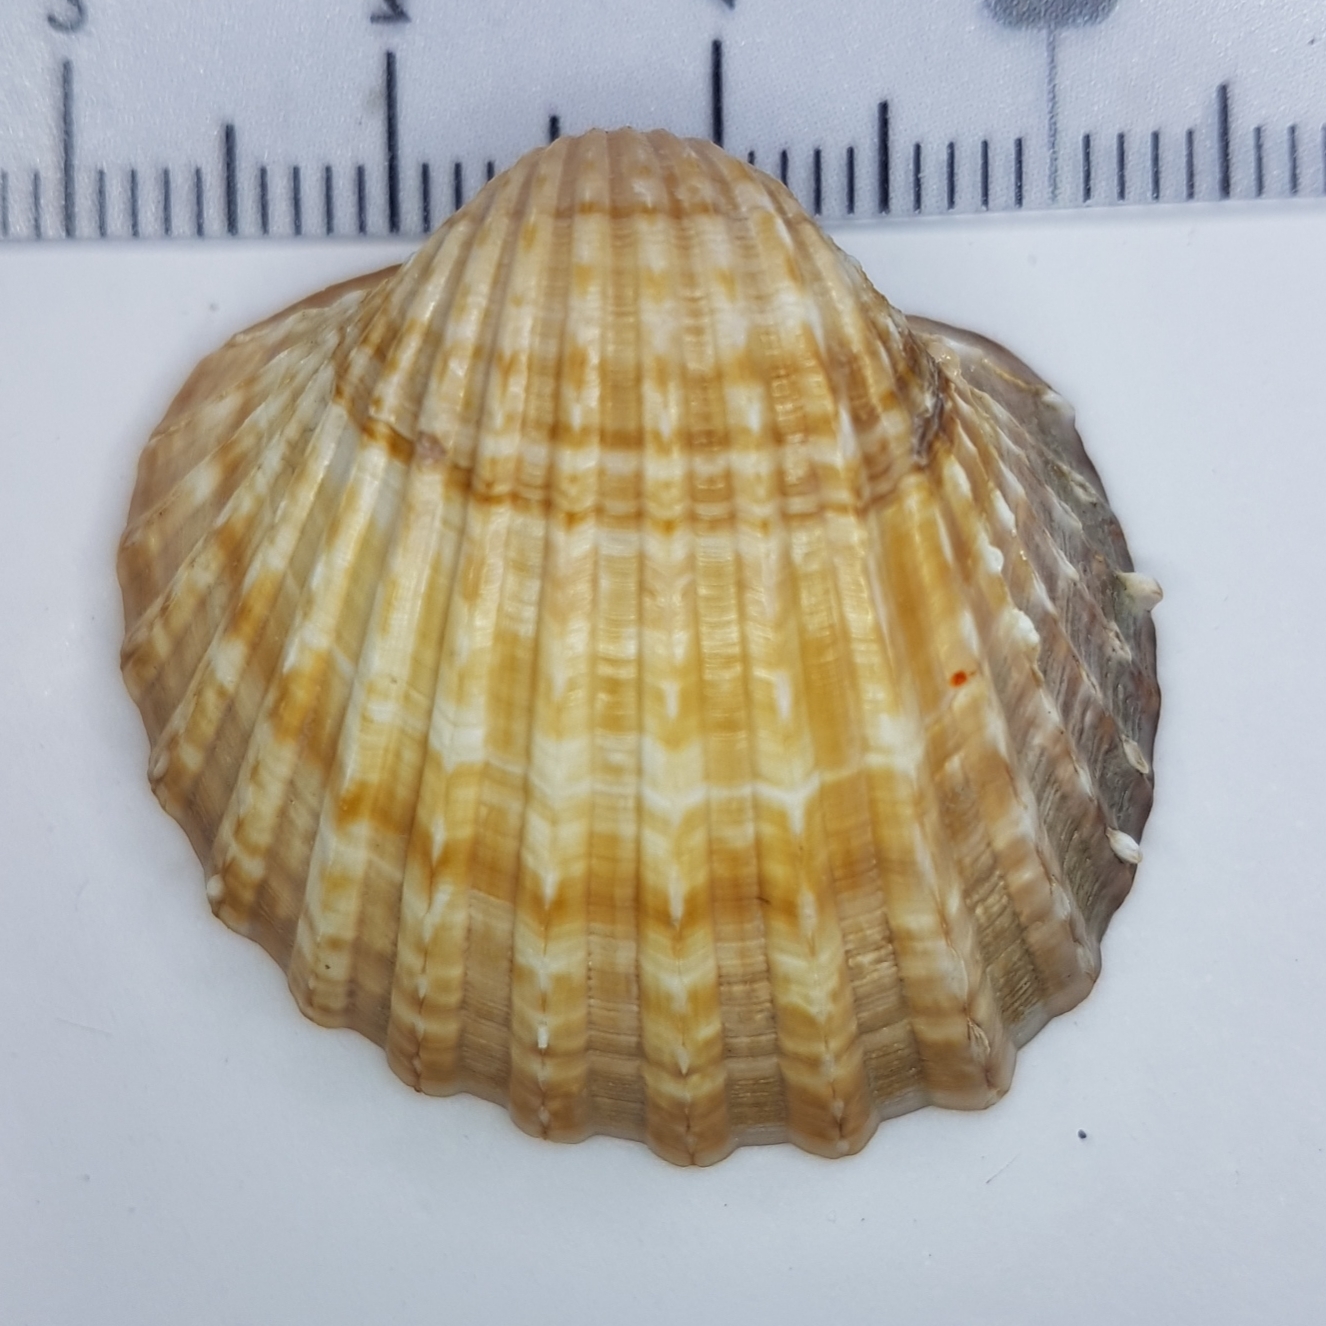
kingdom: Animalia
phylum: Mollusca
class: Bivalvia
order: Cardiida
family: Cardiidae
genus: Acanthocardia
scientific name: Acanthocardia aculeata
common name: Spiny cockle
